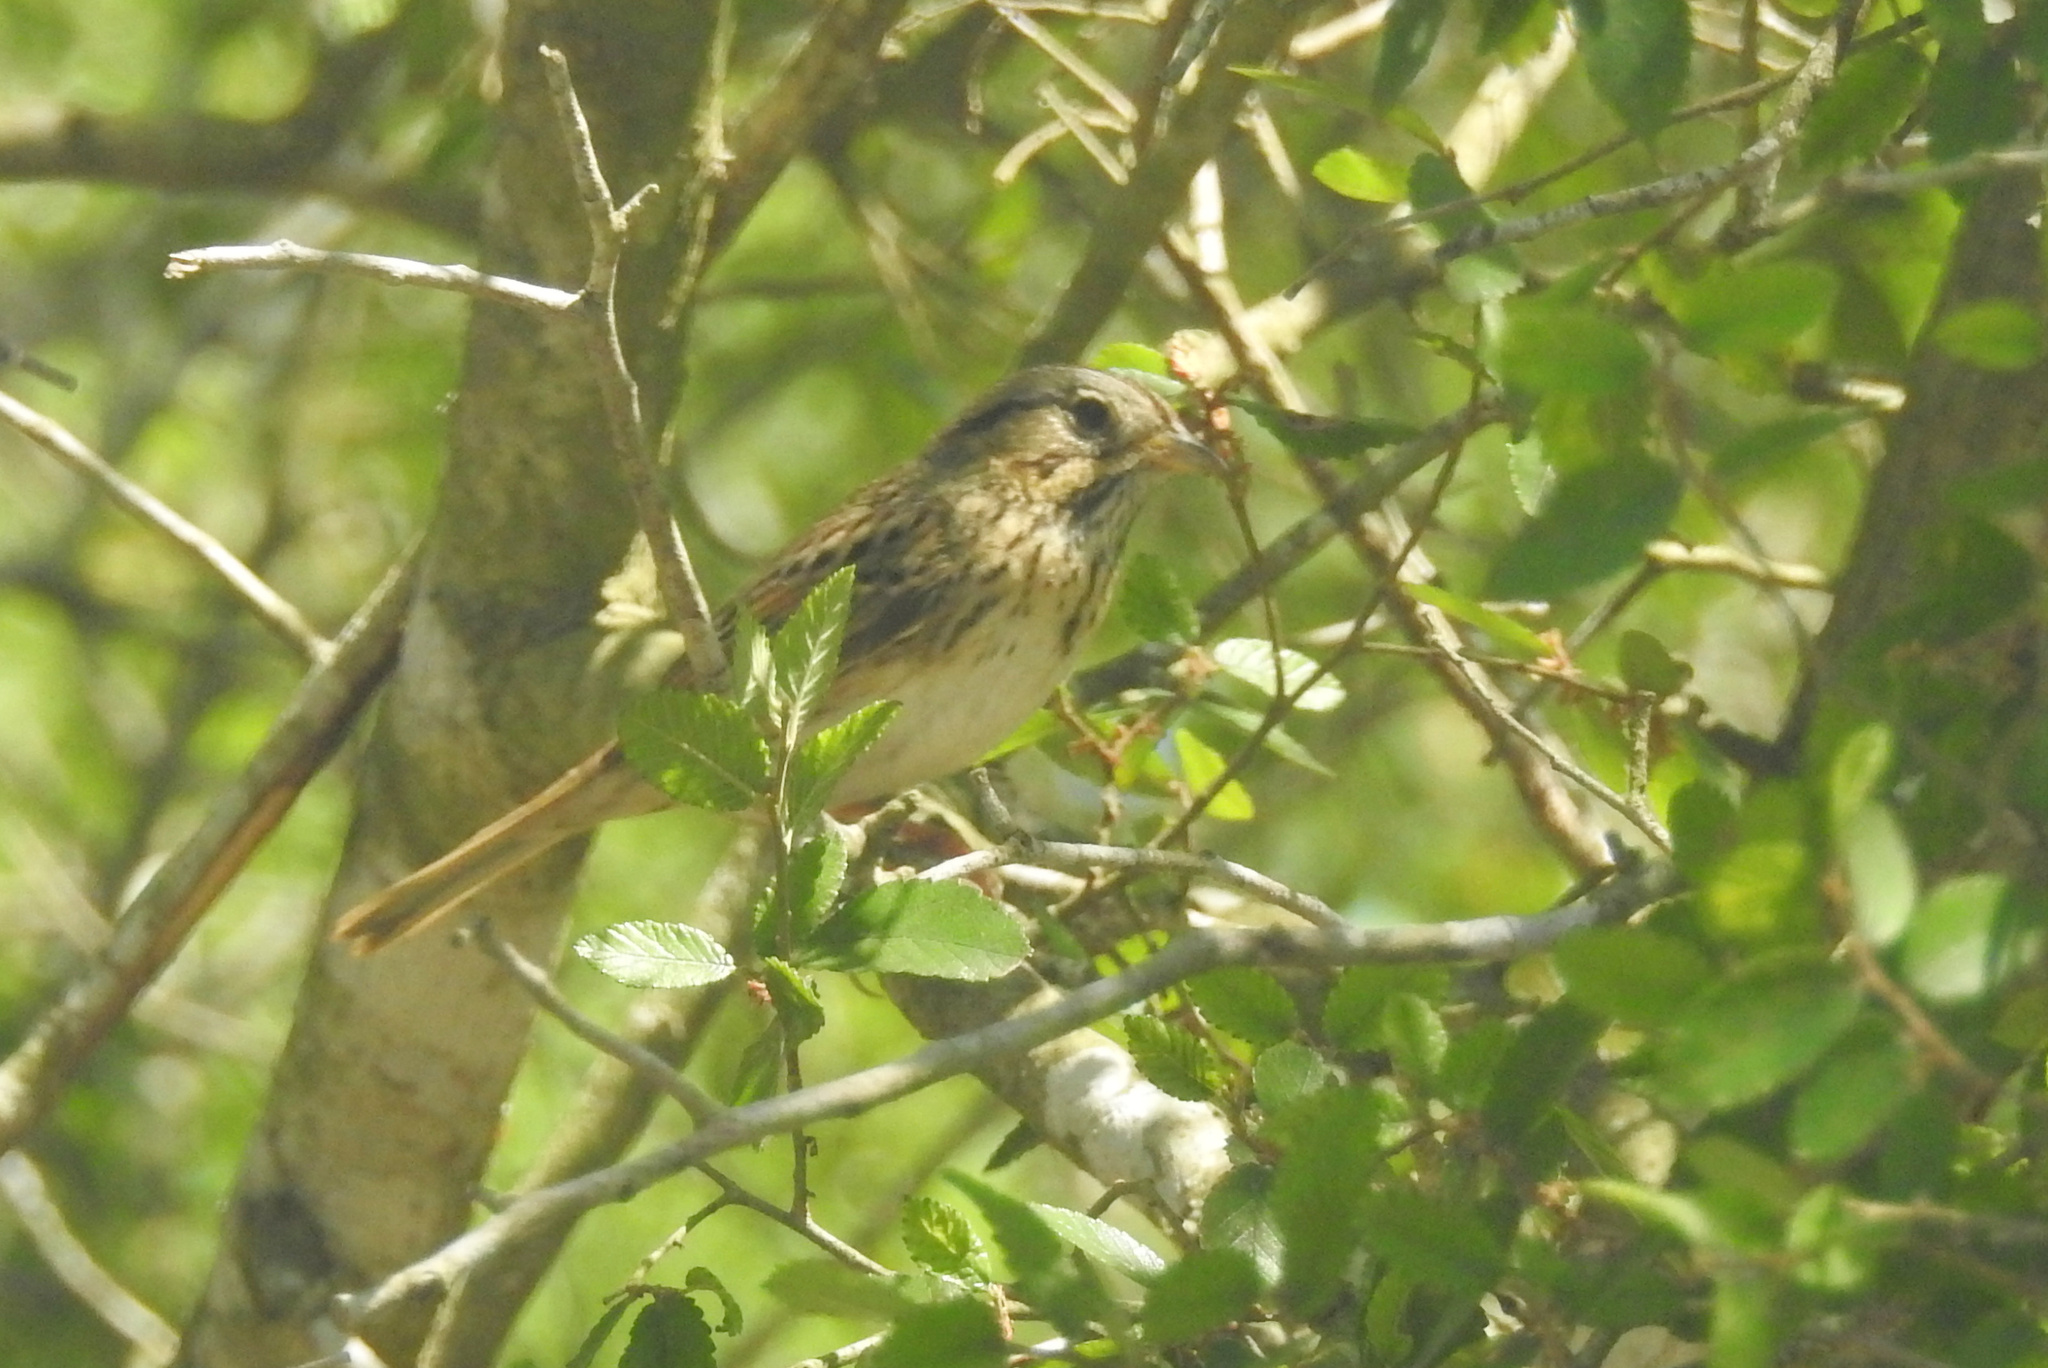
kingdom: Animalia
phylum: Chordata
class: Aves
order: Passeriformes
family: Passerellidae
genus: Melospiza
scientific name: Melospiza lincolnii
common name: Lincoln's sparrow
